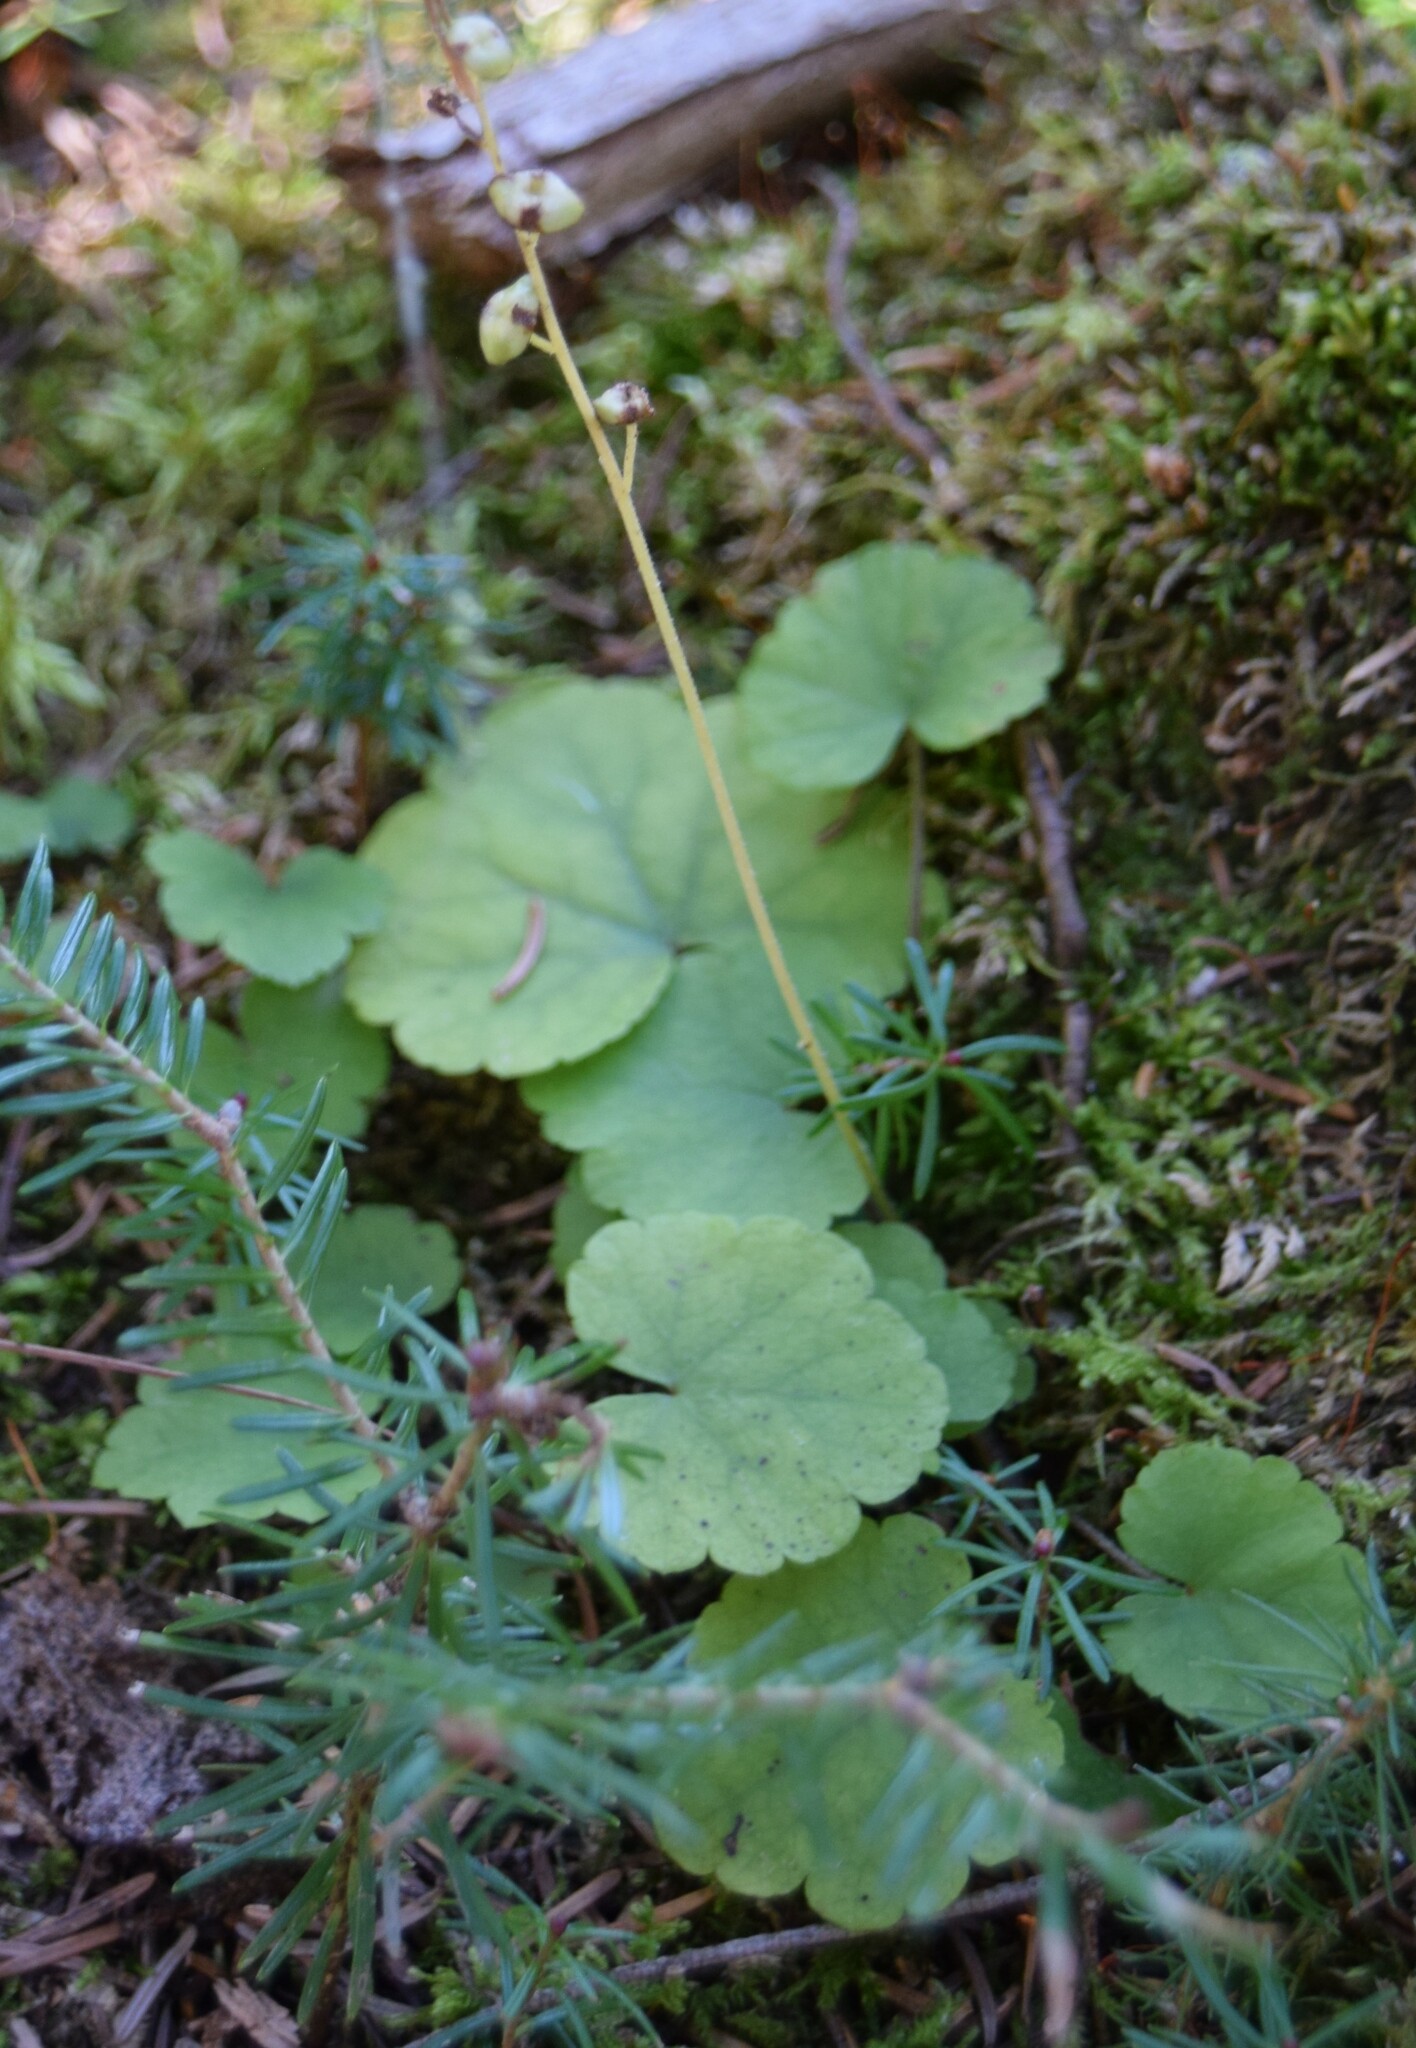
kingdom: Plantae
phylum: Tracheophyta
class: Magnoliopsida
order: Saxifragales
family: Saxifragaceae
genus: Mitella
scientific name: Mitella nuda
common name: Bare-stemmed bishop's-cap
